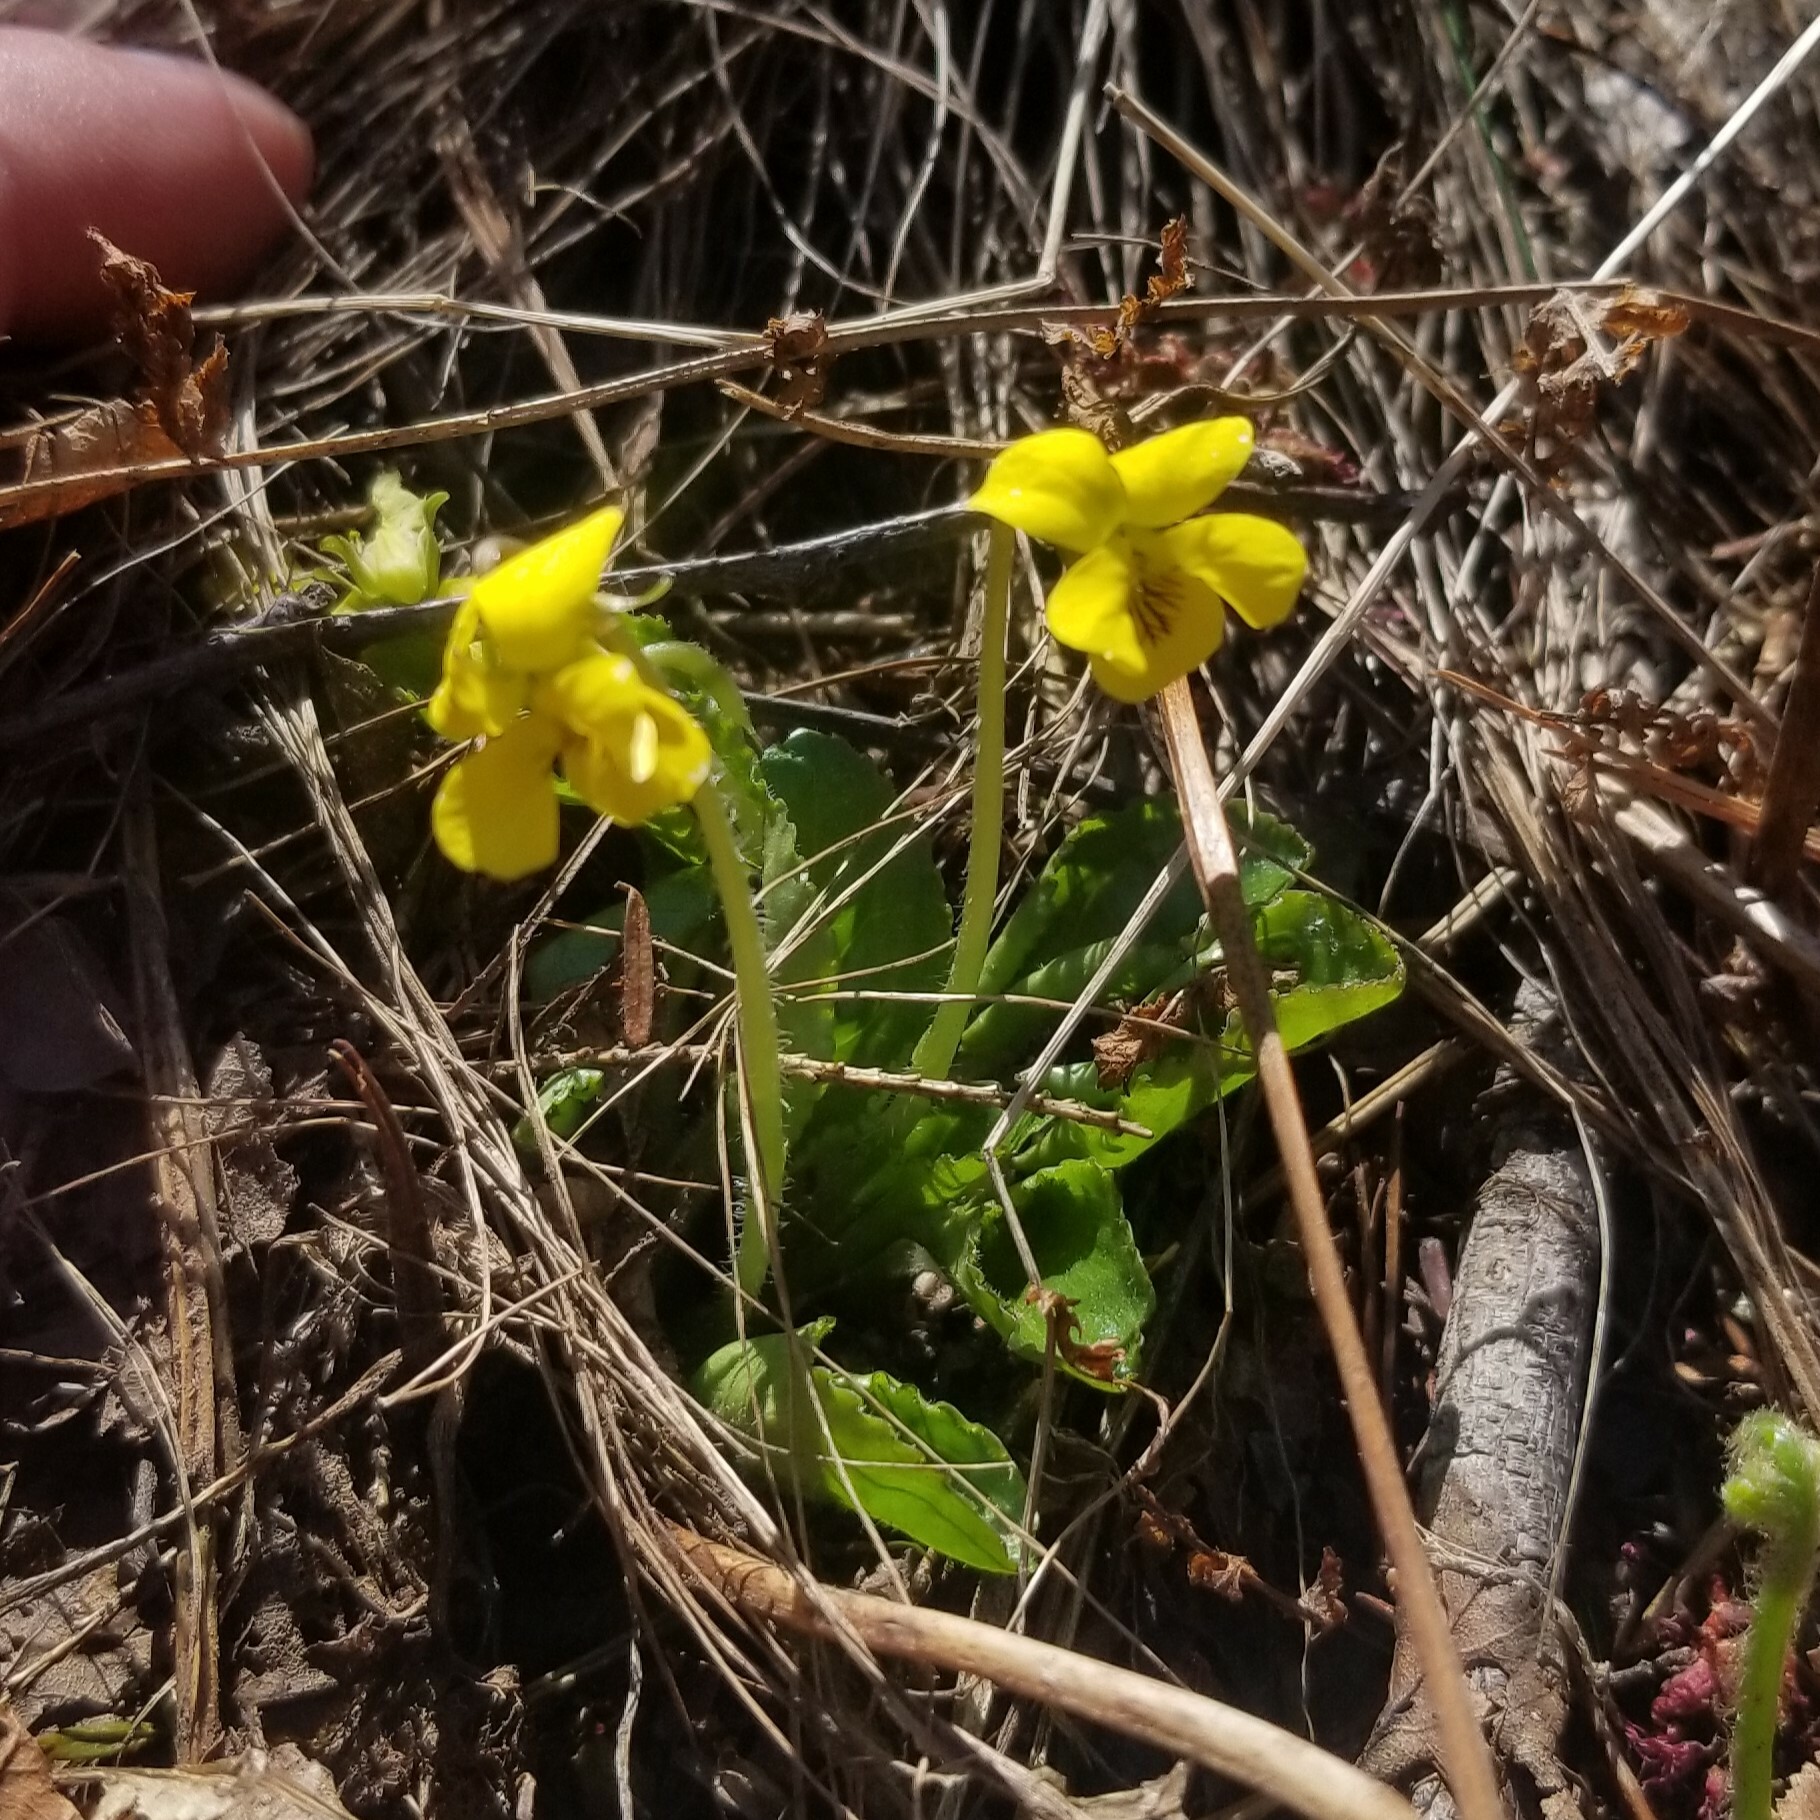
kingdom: Plantae
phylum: Tracheophyta
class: Magnoliopsida
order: Malpighiales
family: Violaceae
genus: Viola
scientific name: Viola rotundifolia
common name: Early yellow violet
